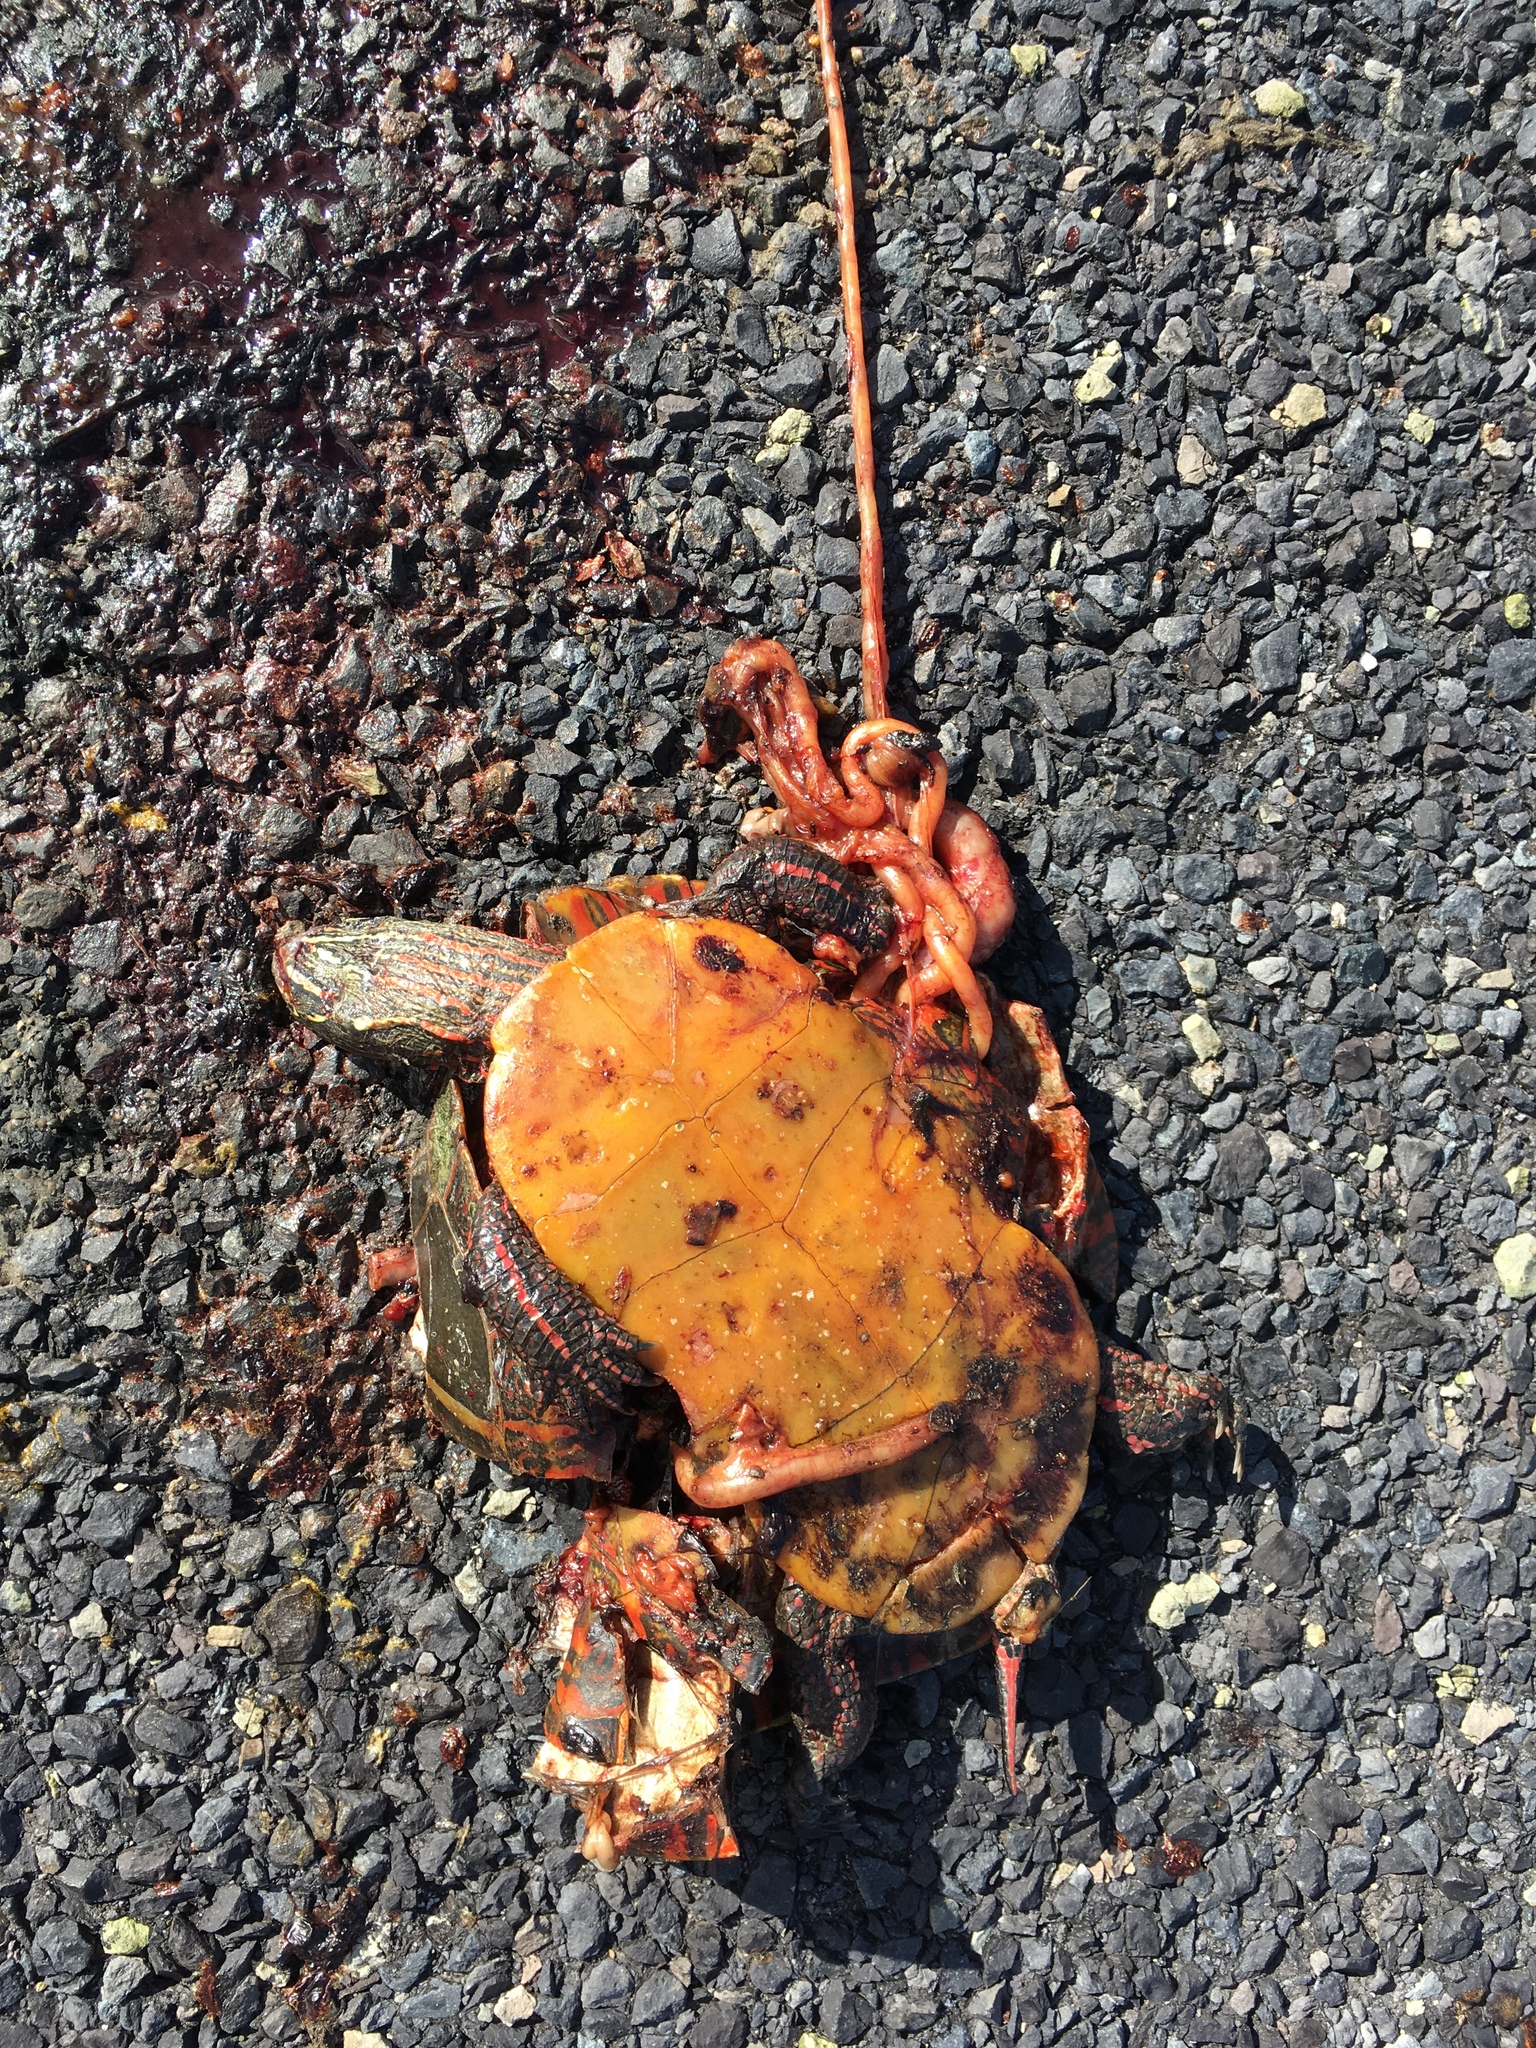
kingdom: Animalia
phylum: Chordata
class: Testudines
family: Emydidae
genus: Chrysemys
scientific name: Chrysemys picta
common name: Painted turtle
